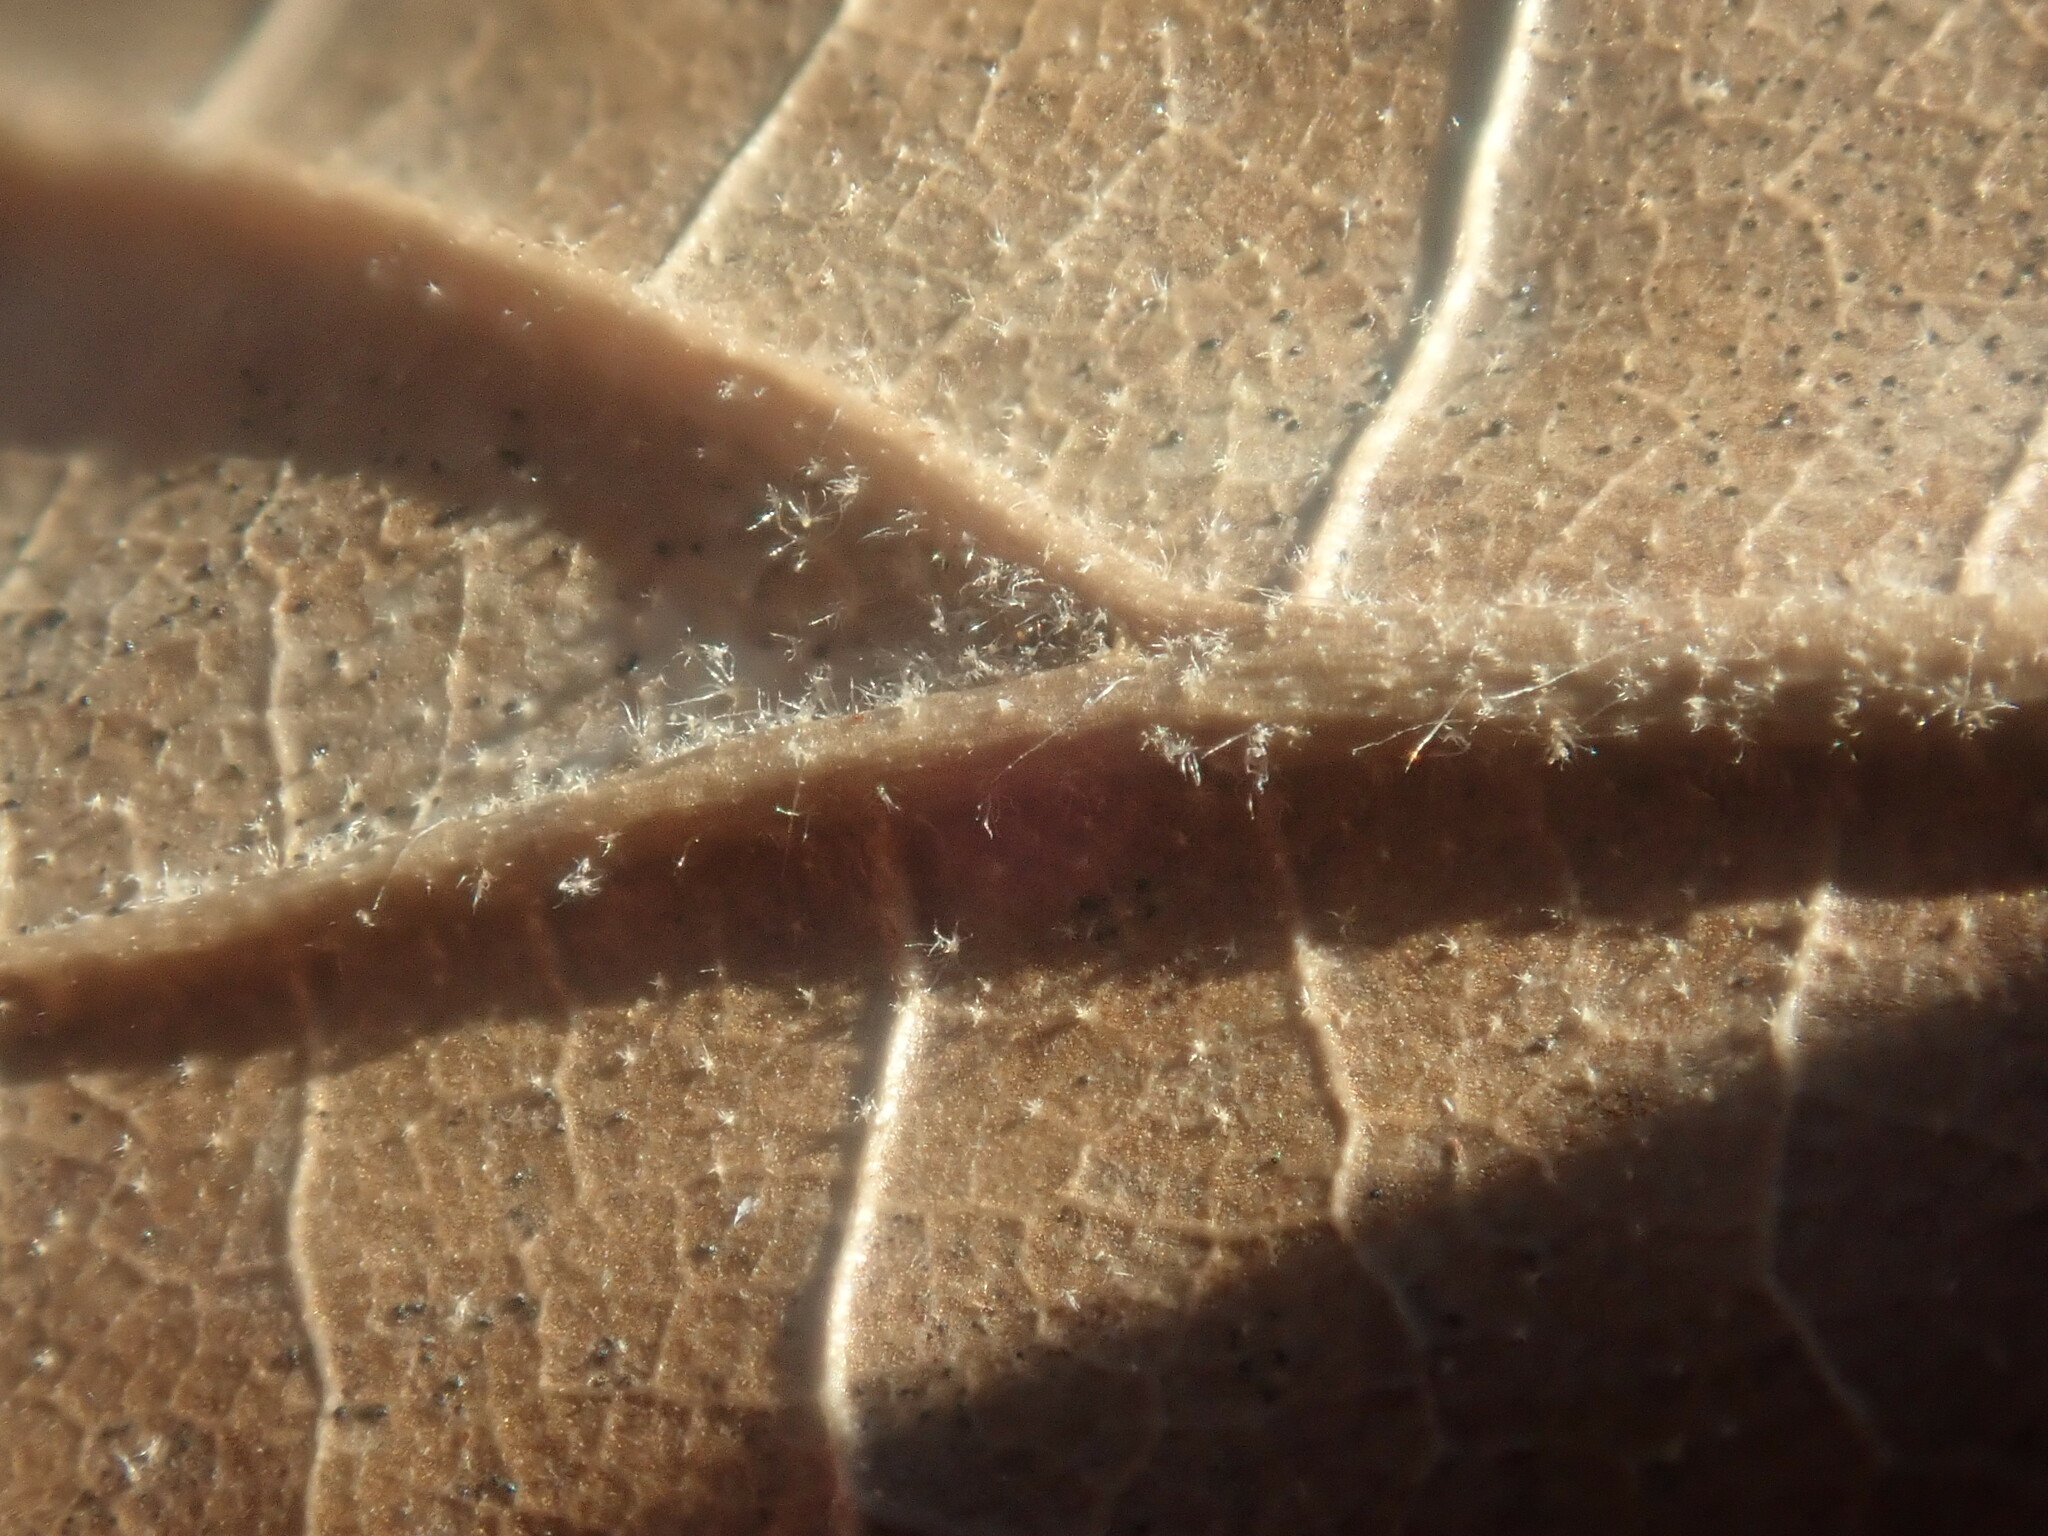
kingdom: Plantae
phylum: Tracheophyta
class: Magnoliopsida
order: Fagales
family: Fagaceae
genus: Quercus
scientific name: Quercus velutina
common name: Black oak
